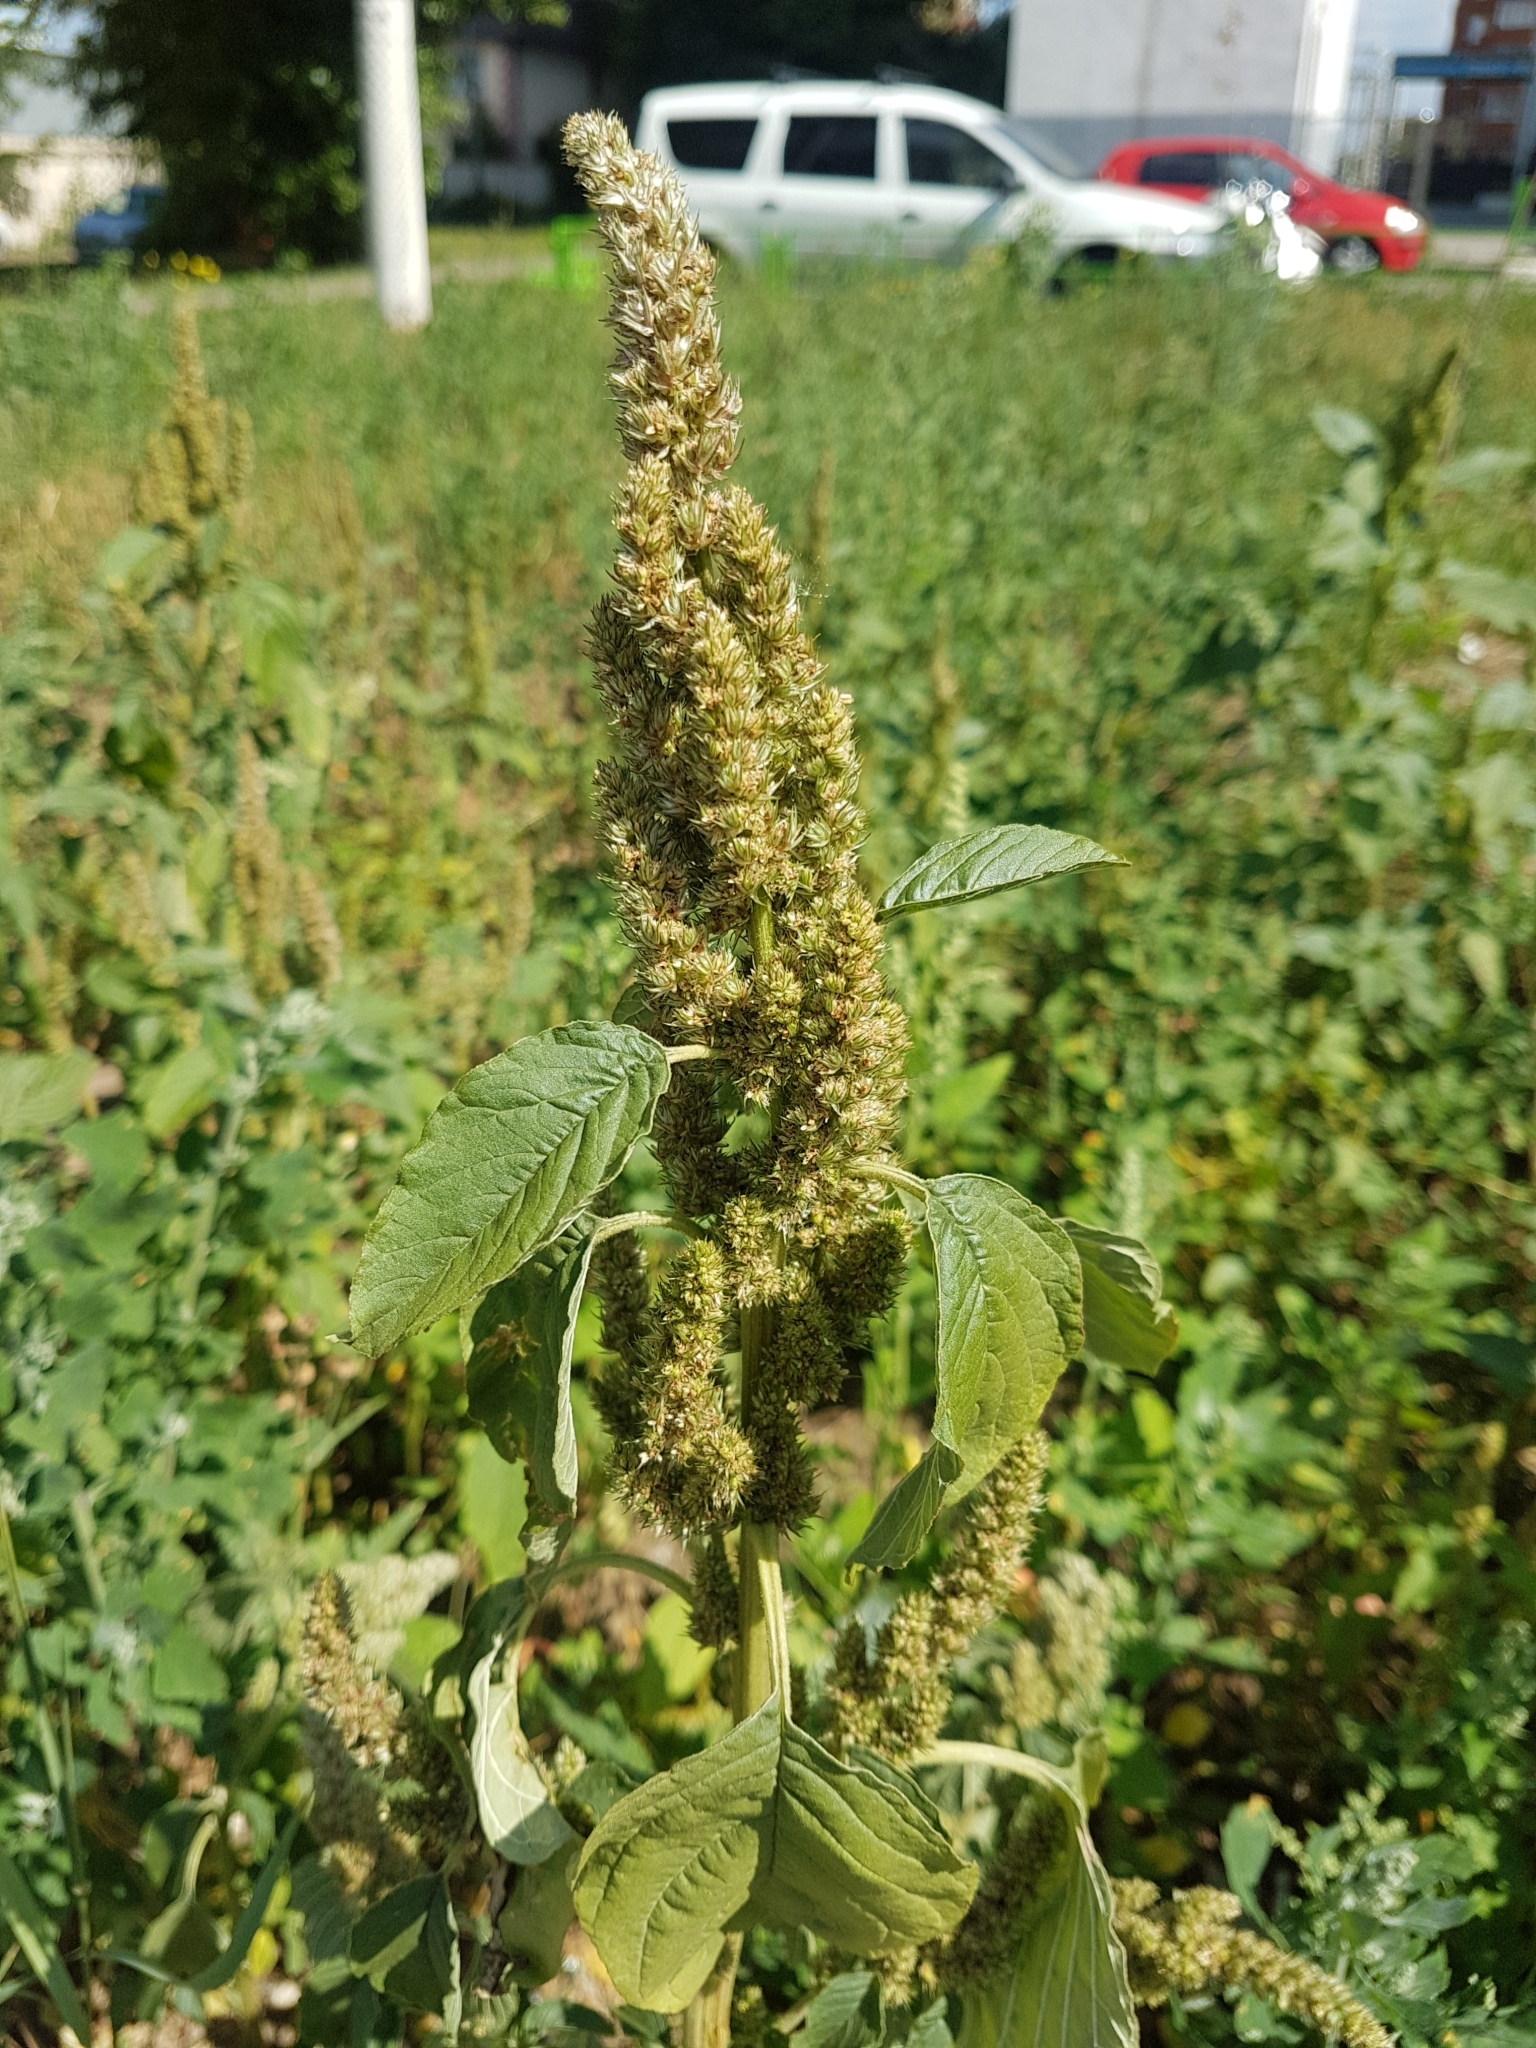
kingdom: Plantae
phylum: Tracheophyta
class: Magnoliopsida
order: Caryophyllales
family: Amaranthaceae
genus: Amaranthus
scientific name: Amaranthus retroflexus
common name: Redroot amaranth
